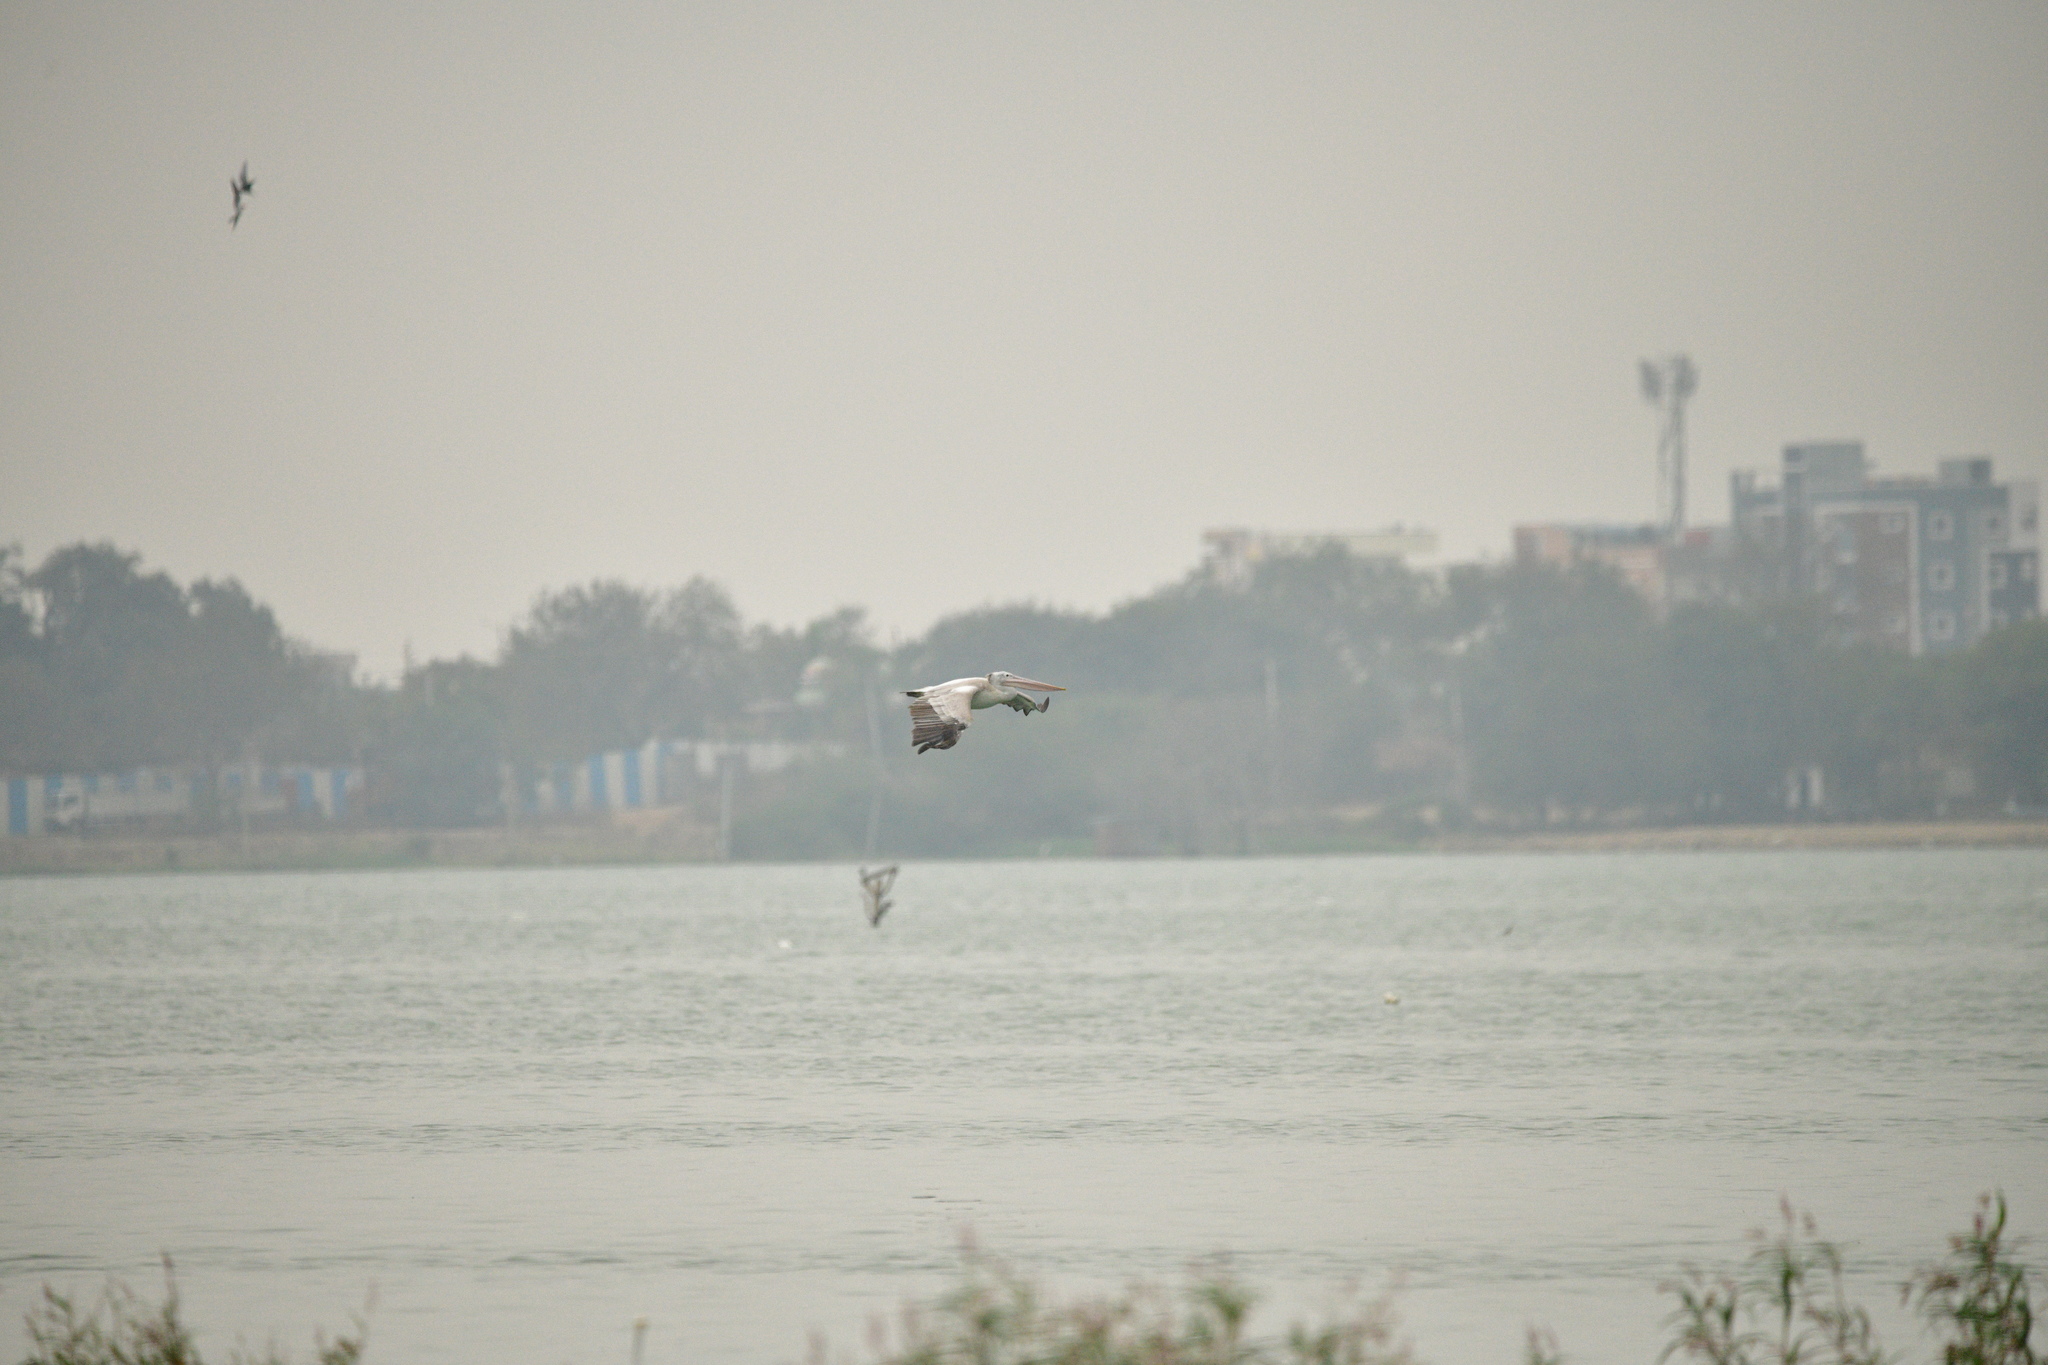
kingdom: Animalia
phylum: Chordata
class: Aves
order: Pelecaniformes
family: Pelecanidae
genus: Pelecanus
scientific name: Pelecanus philippensis
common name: Spot-billed pelican
